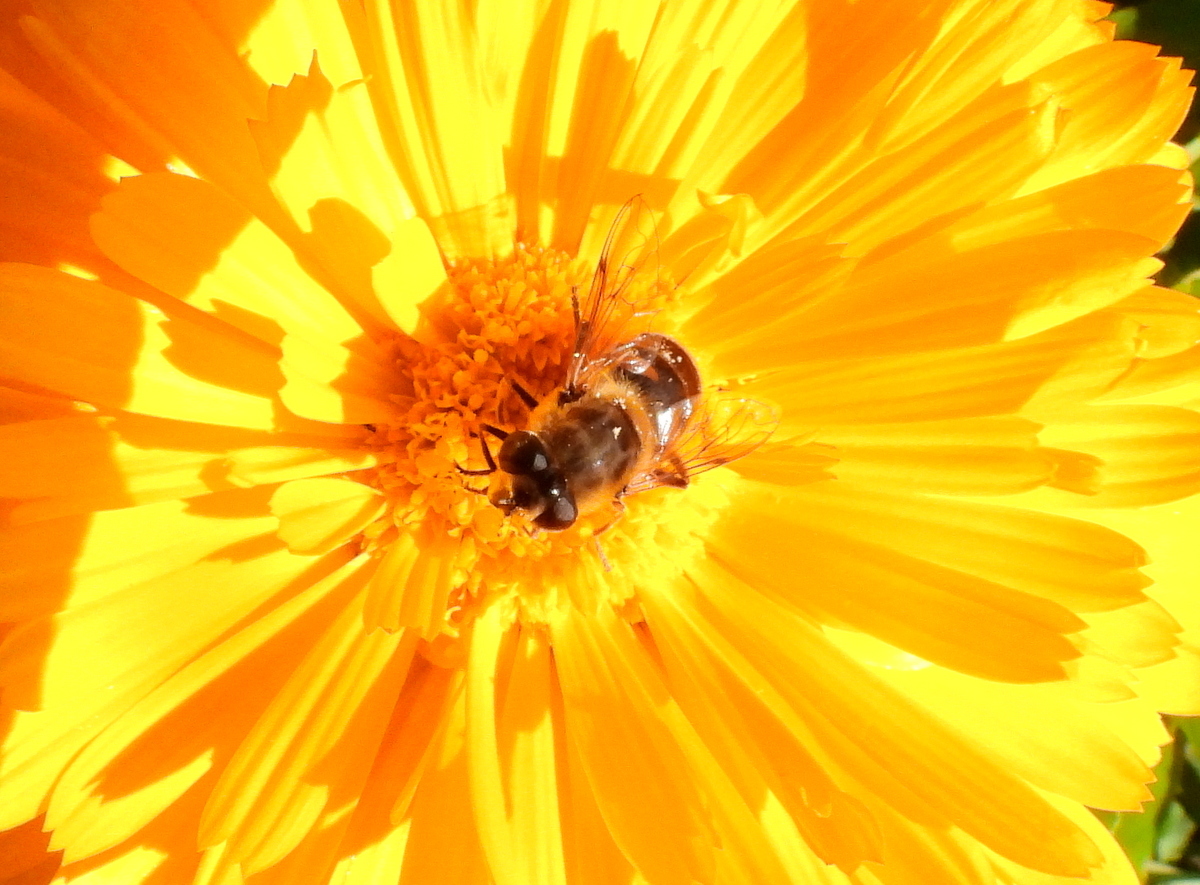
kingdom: Animalia
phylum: Arthropoda
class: Insecta
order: Diptera
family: Syrphidae
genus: Eristalis
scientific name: Eristalis tenax
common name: Drone fly
